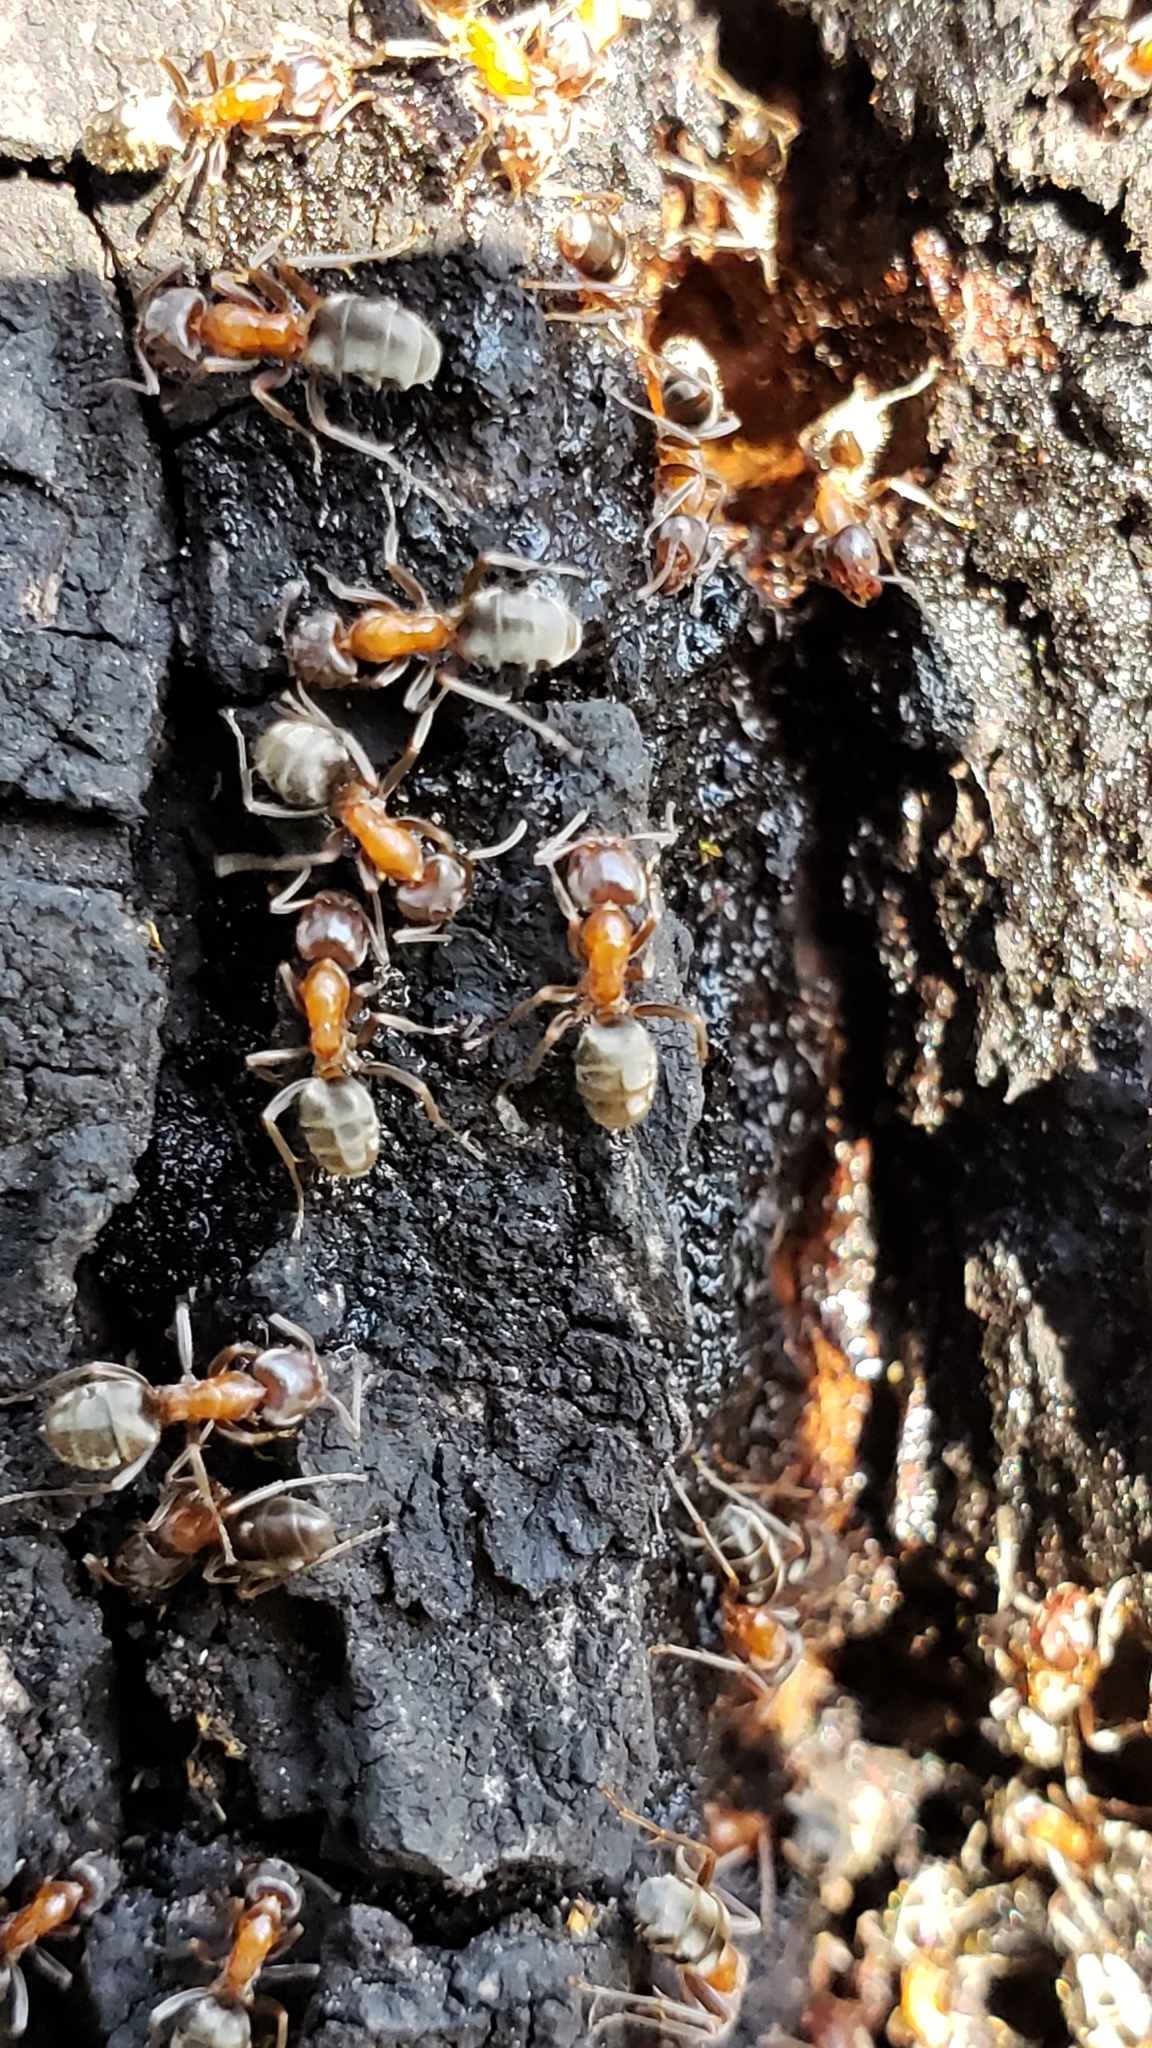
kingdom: Animalia
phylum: Arthropoda
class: Insecta
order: Hymenoptera
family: Formicidae
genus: Liometopum
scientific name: Liometopum occidentale
